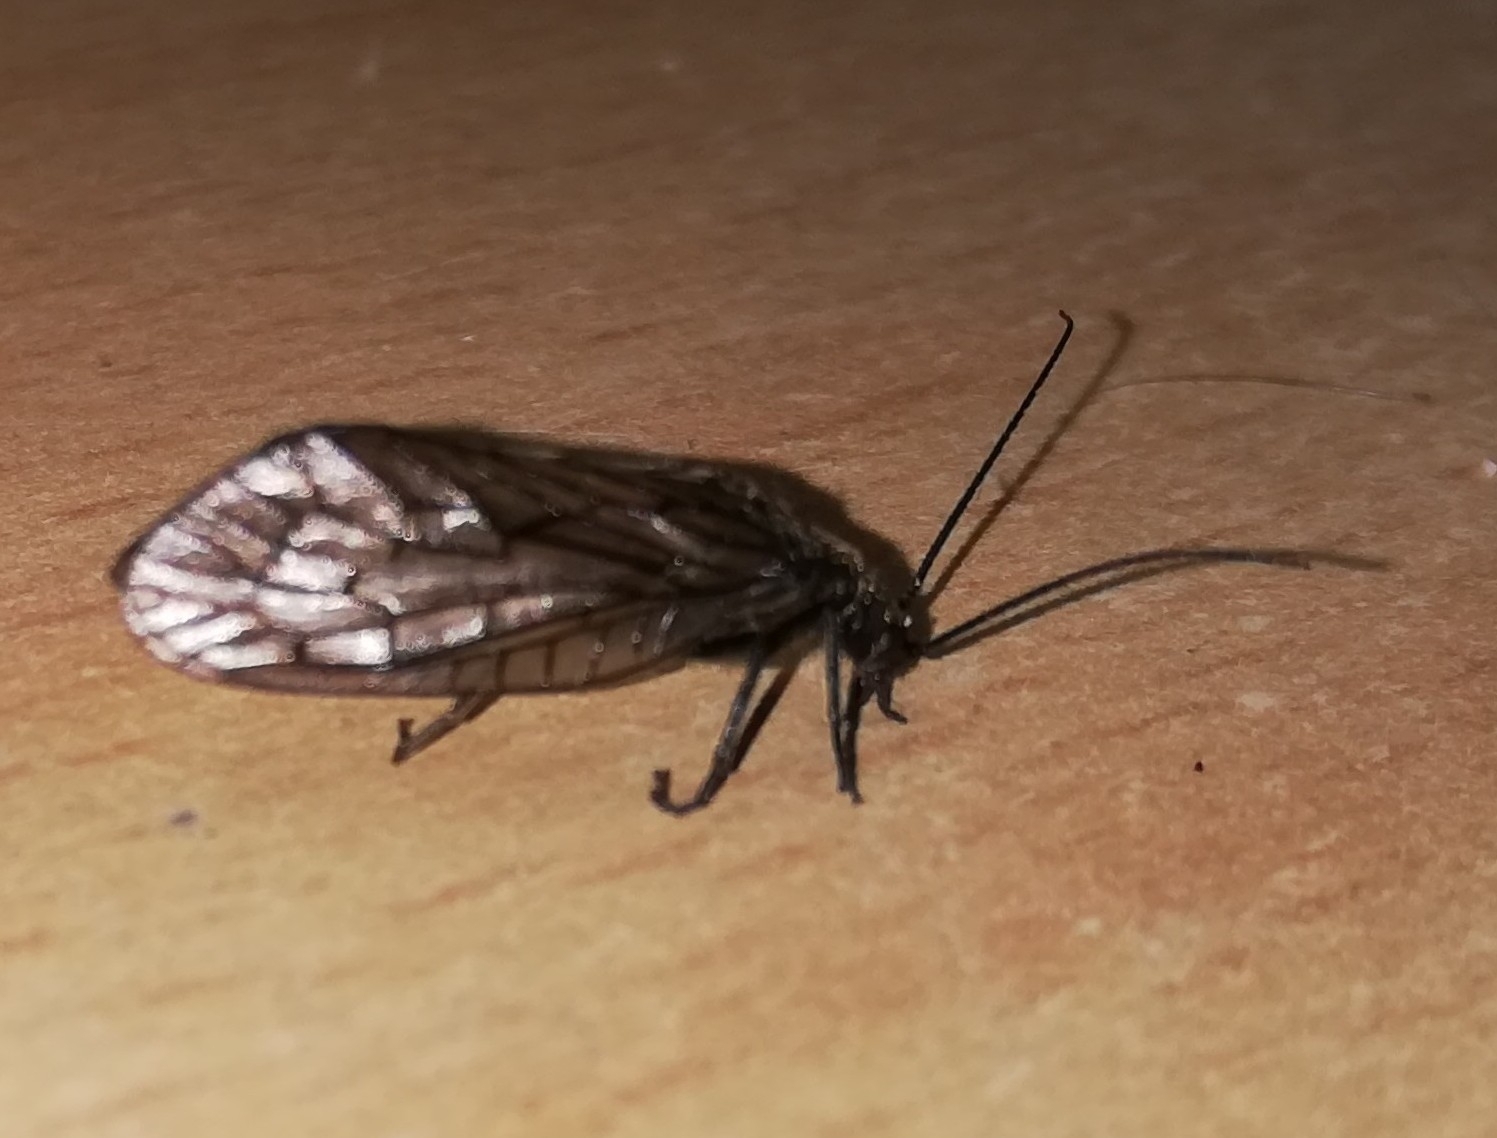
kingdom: Animalia
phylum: Arthropoda
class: Insecta
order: Megaloptera
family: Sialidae
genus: Sialis
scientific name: Sialis
